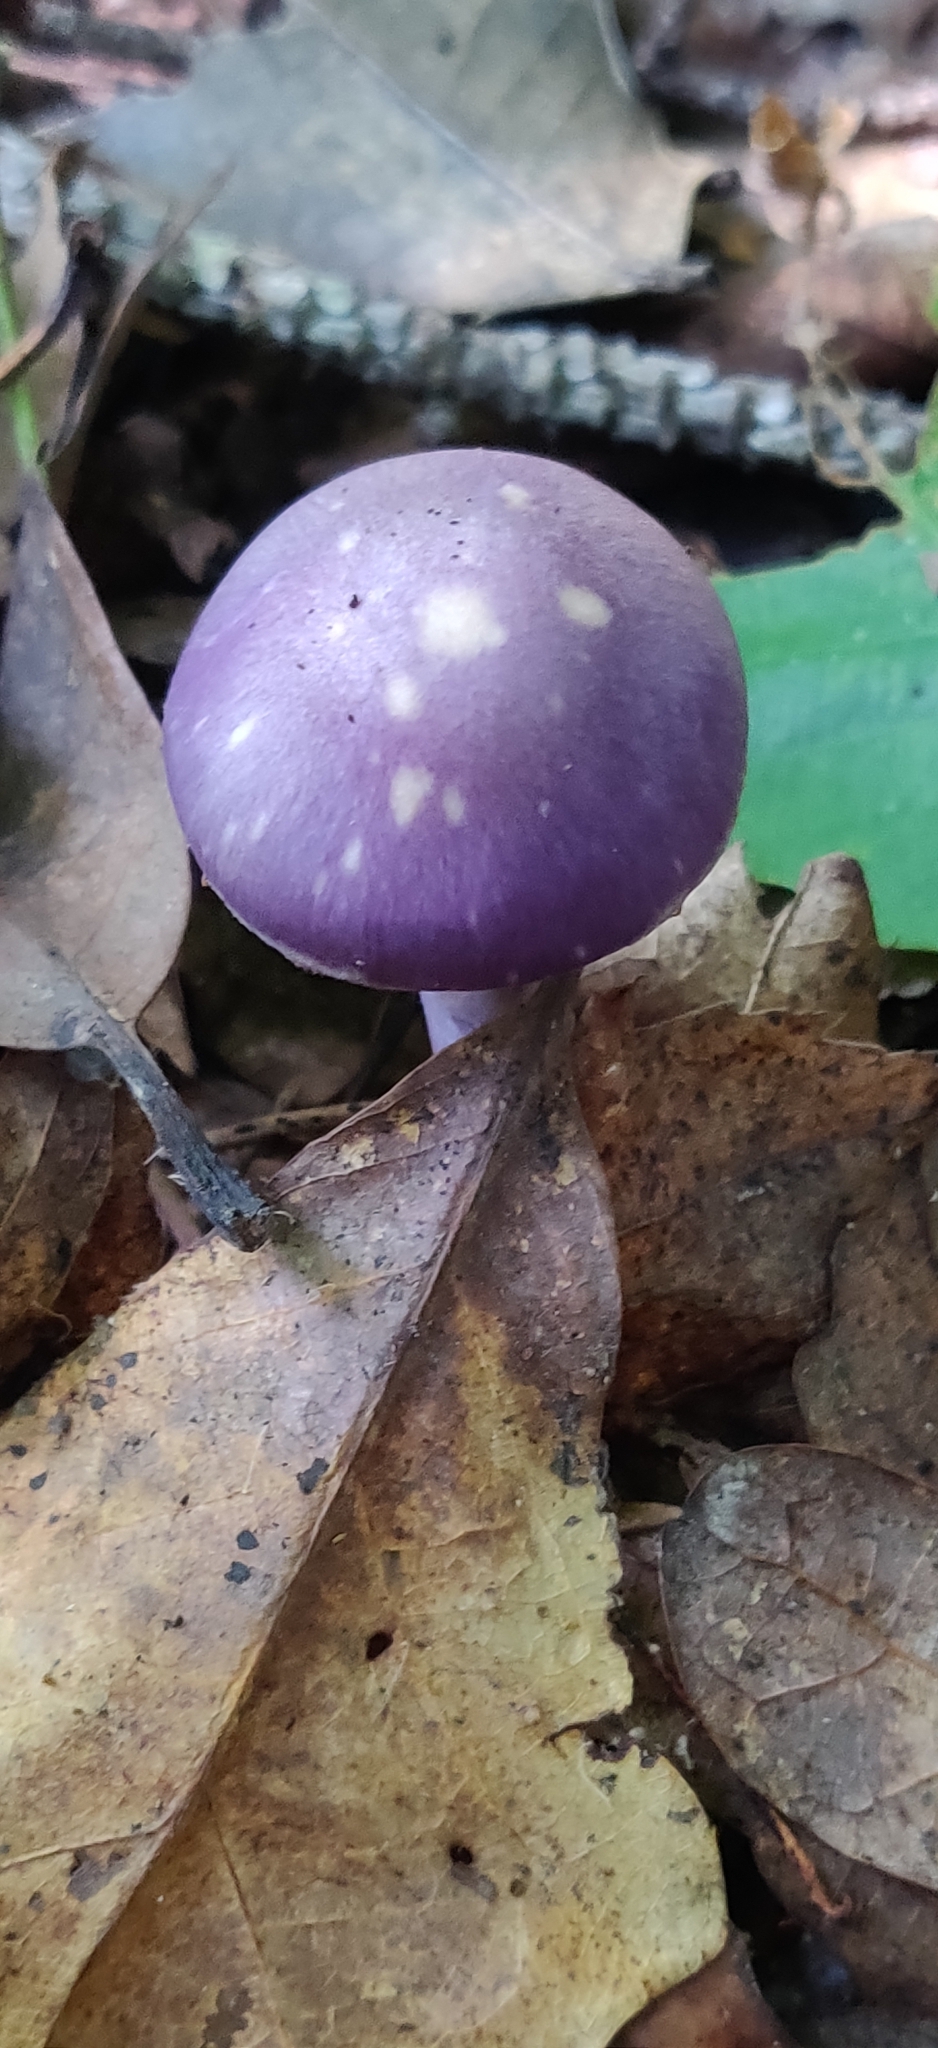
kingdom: Fungi
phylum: Basidiomycota
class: Agaricomycetes
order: Agaricales
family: Cortinariaceae
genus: Cortinarius
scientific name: Cortinarius iodes
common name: Viscid violet cort
